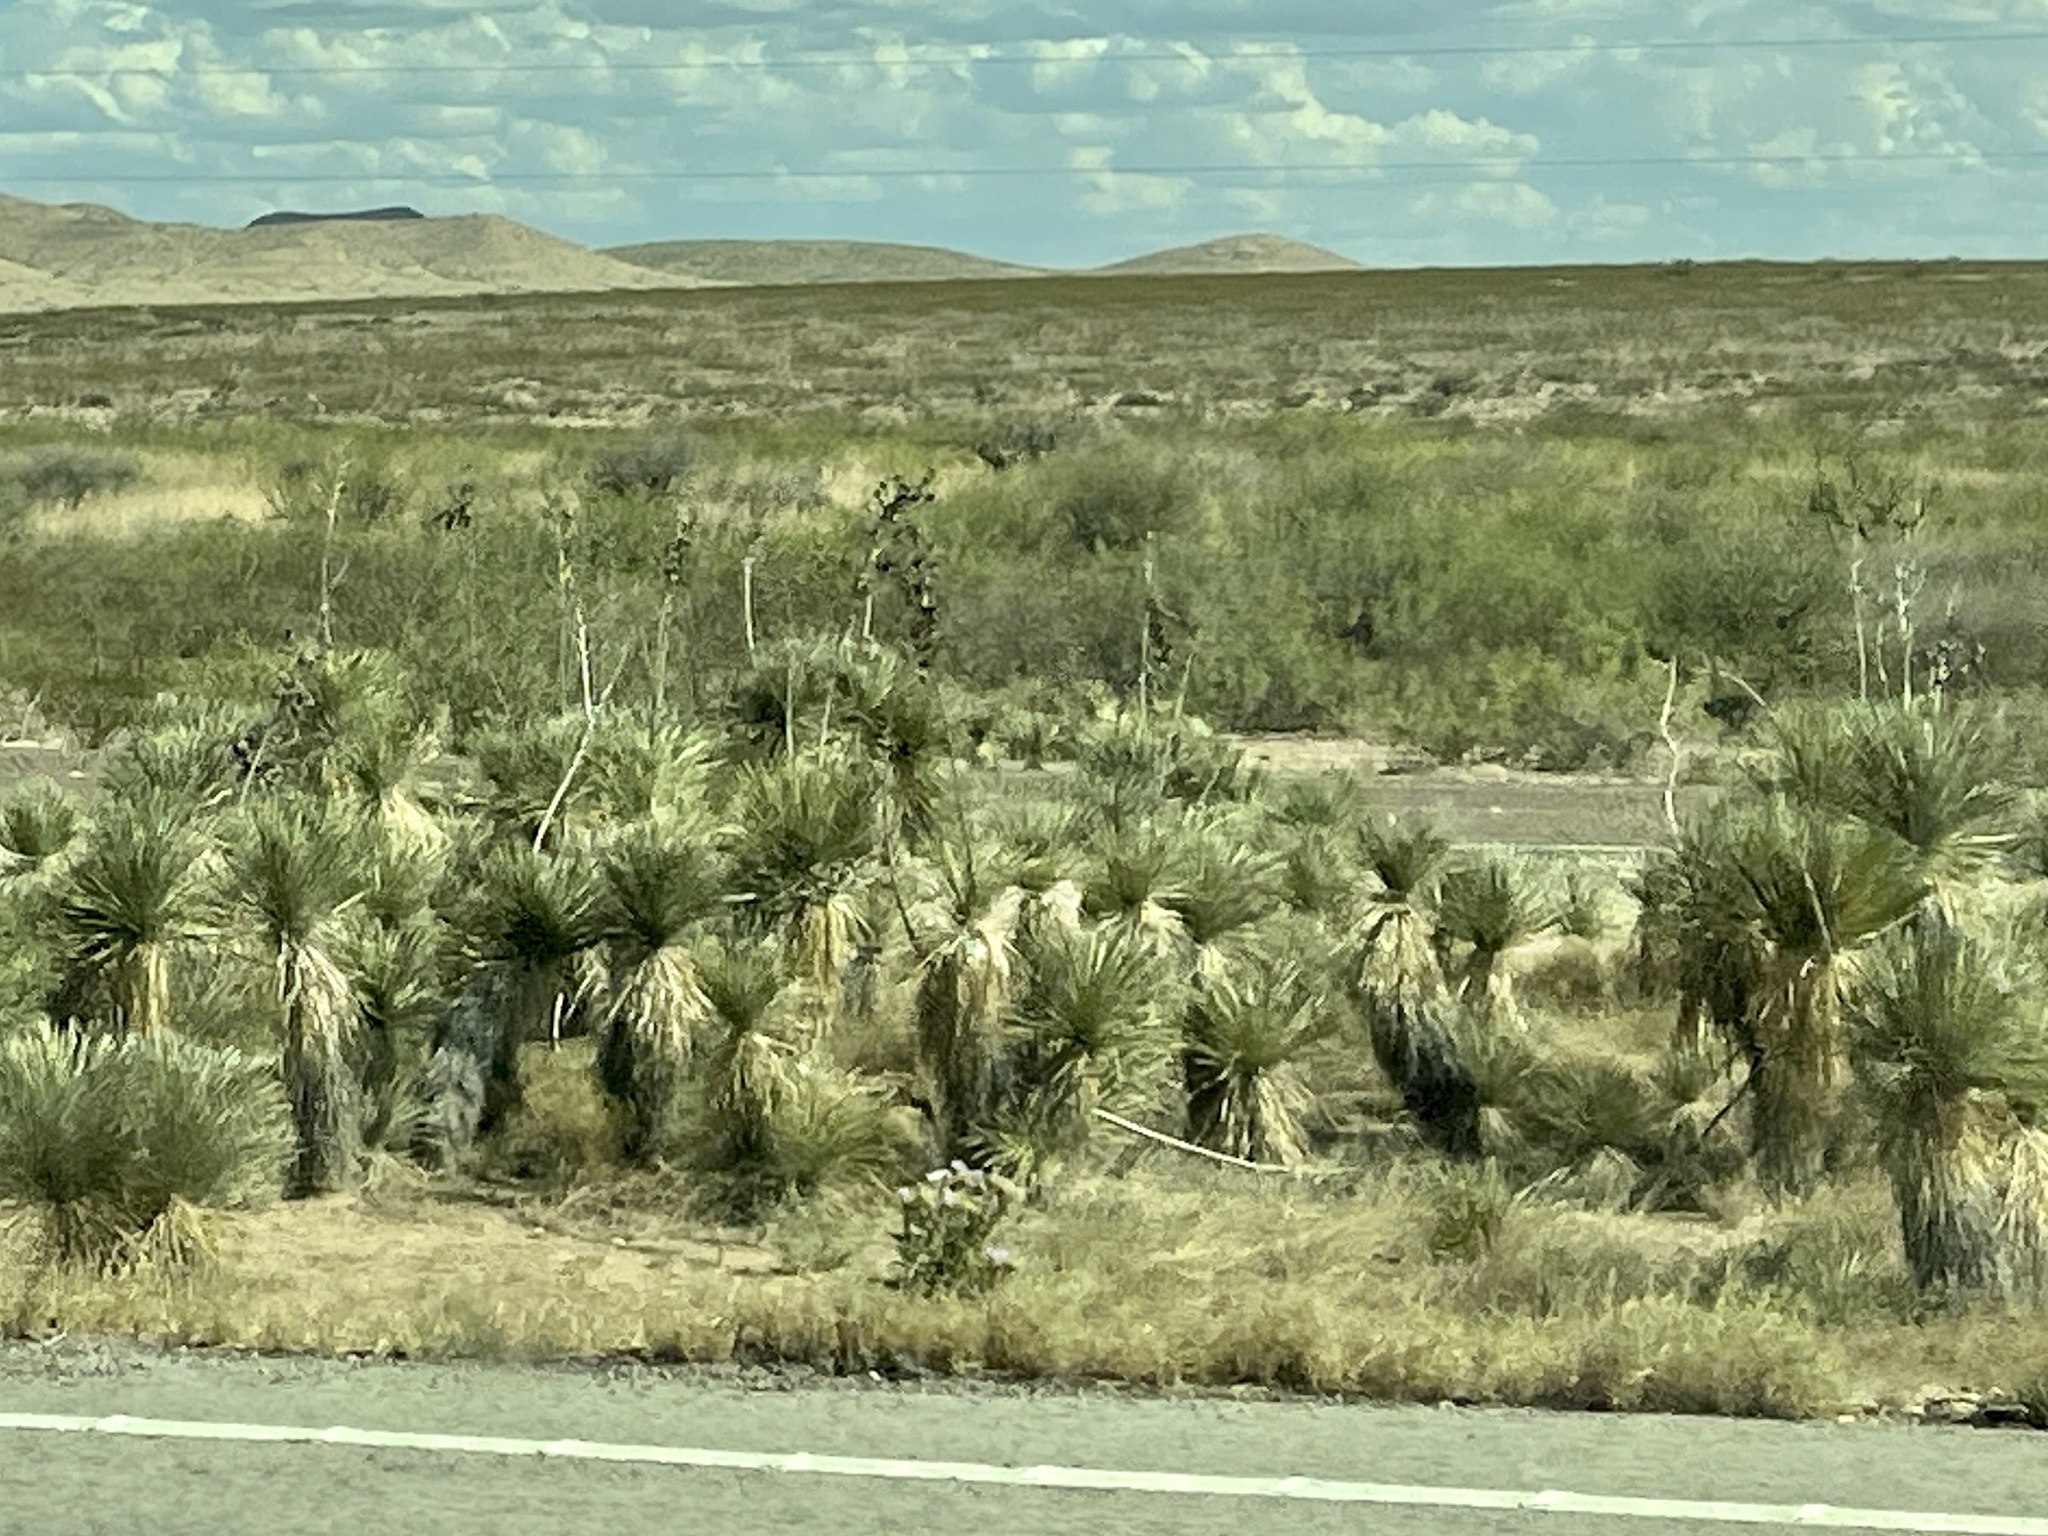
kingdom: Plantae
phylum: Tracheophyta
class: Liliopsida
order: Asparagales
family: Asparagaceae
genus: Yucca
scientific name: Yucca elata
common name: Palmella
